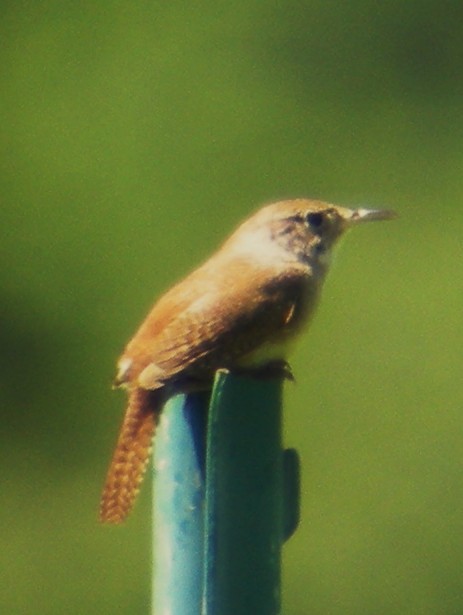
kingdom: Animalia
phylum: Chordata
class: Aves
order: Passeriformes
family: Troglodytidae
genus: Troglodytes
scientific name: Troglodytes aedon
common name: House wren
